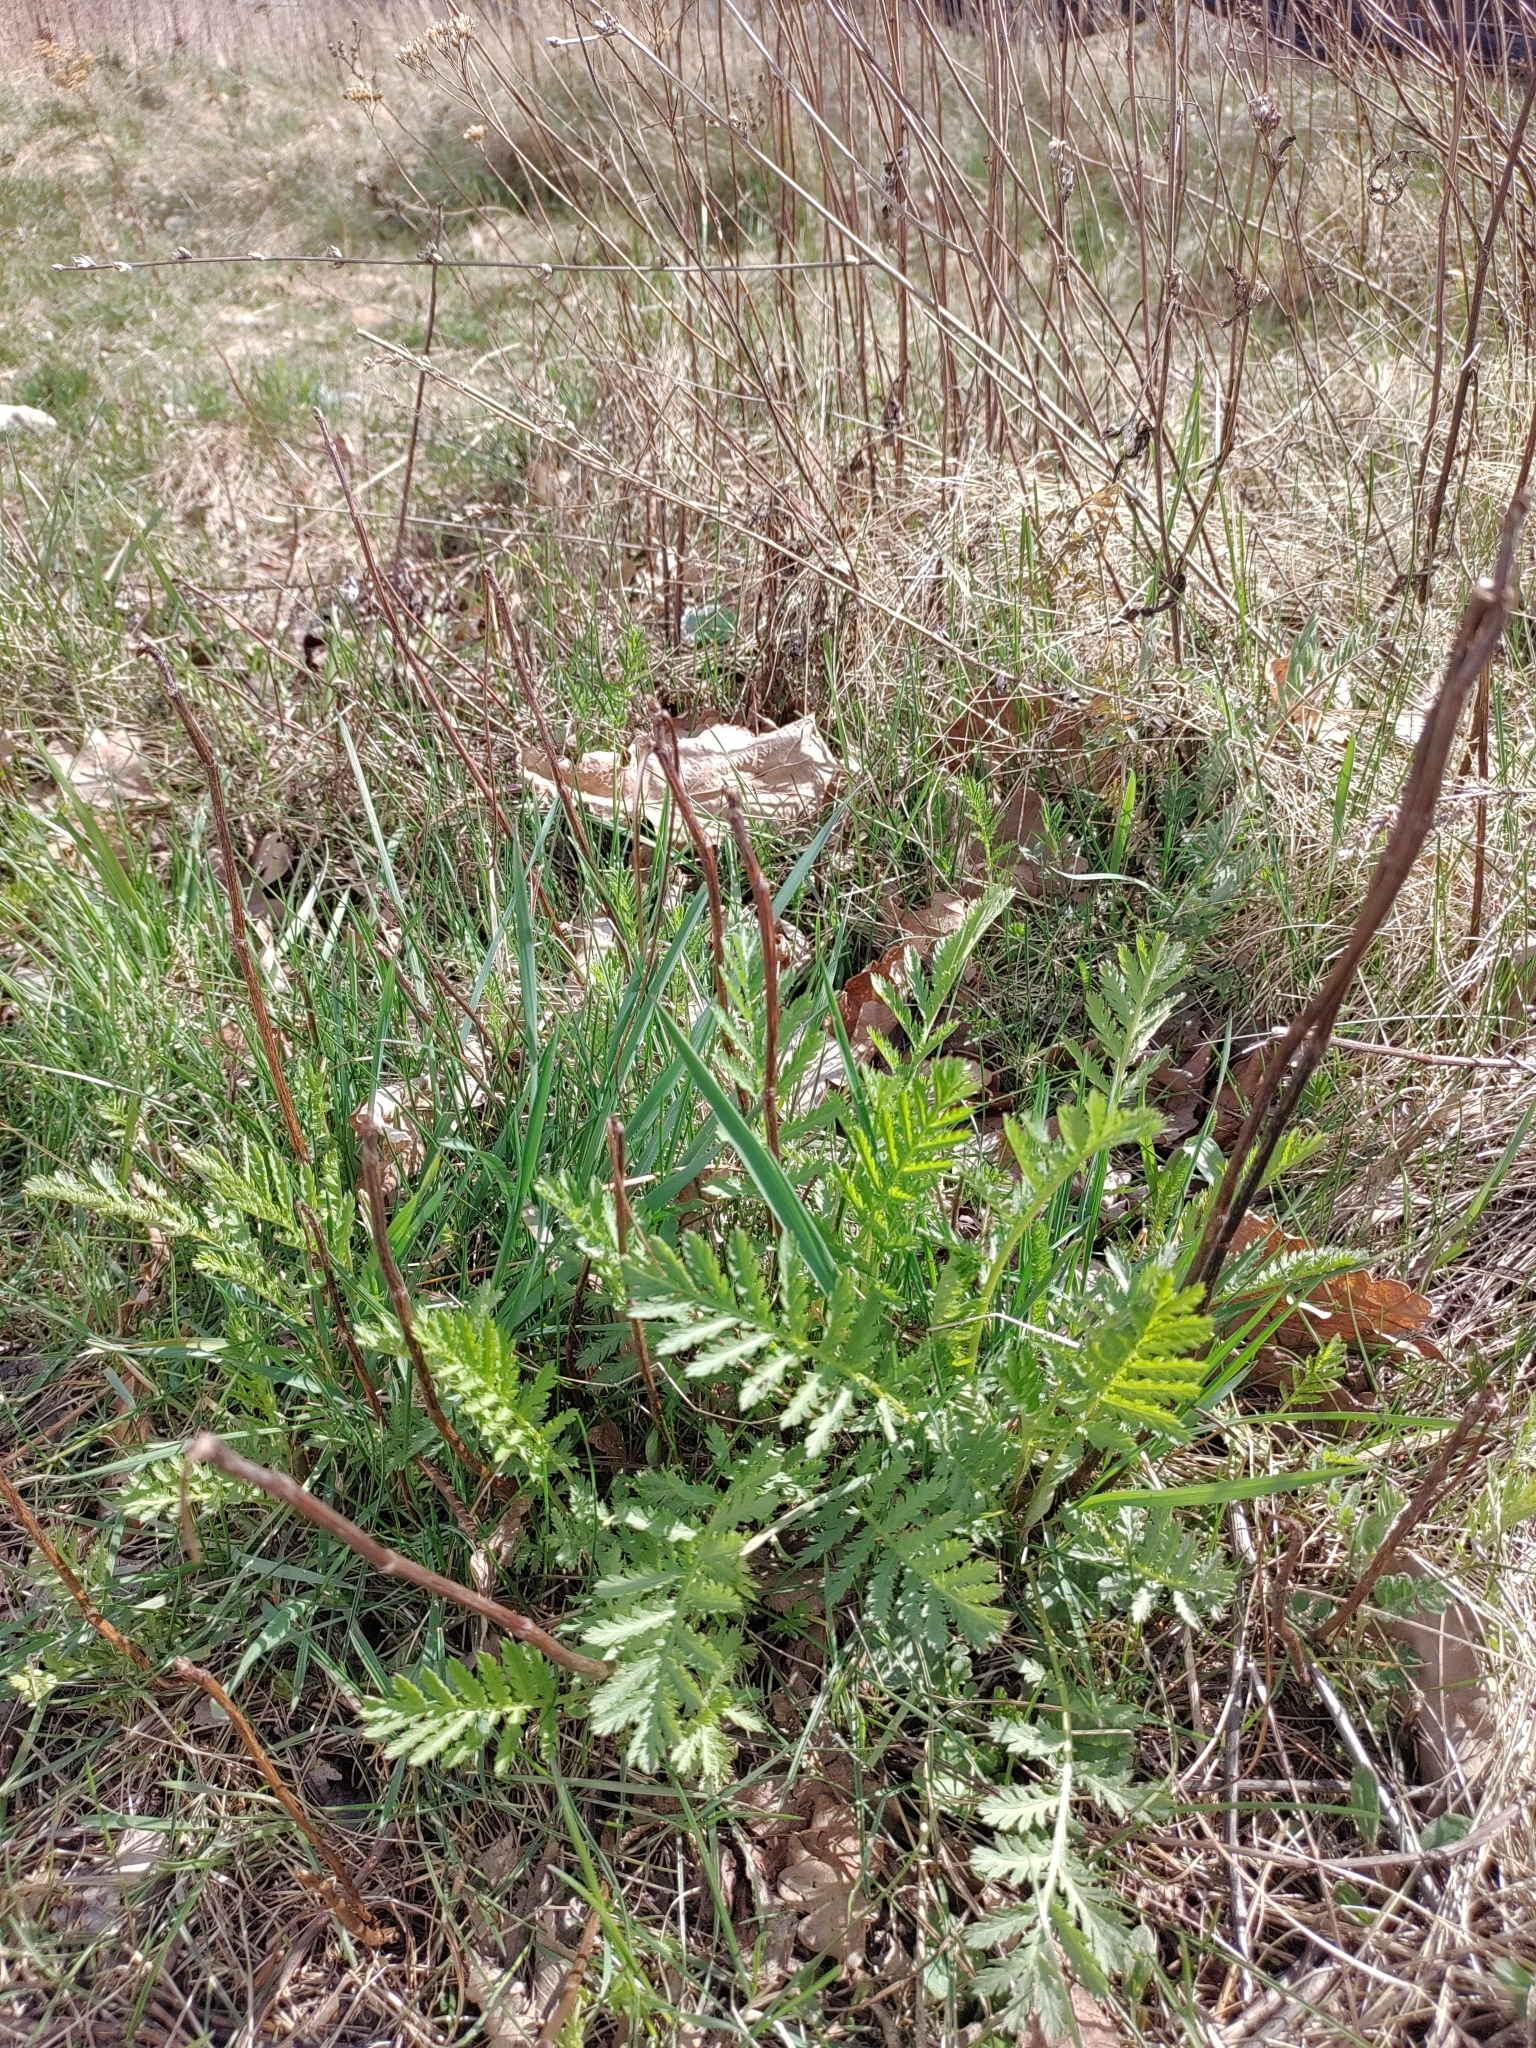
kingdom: Plantae
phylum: Tracheophyta
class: Magnoliopsida
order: Asterales
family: Asteraceae
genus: Tanacetum
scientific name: Tanacetum vulgare
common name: Common tansy
